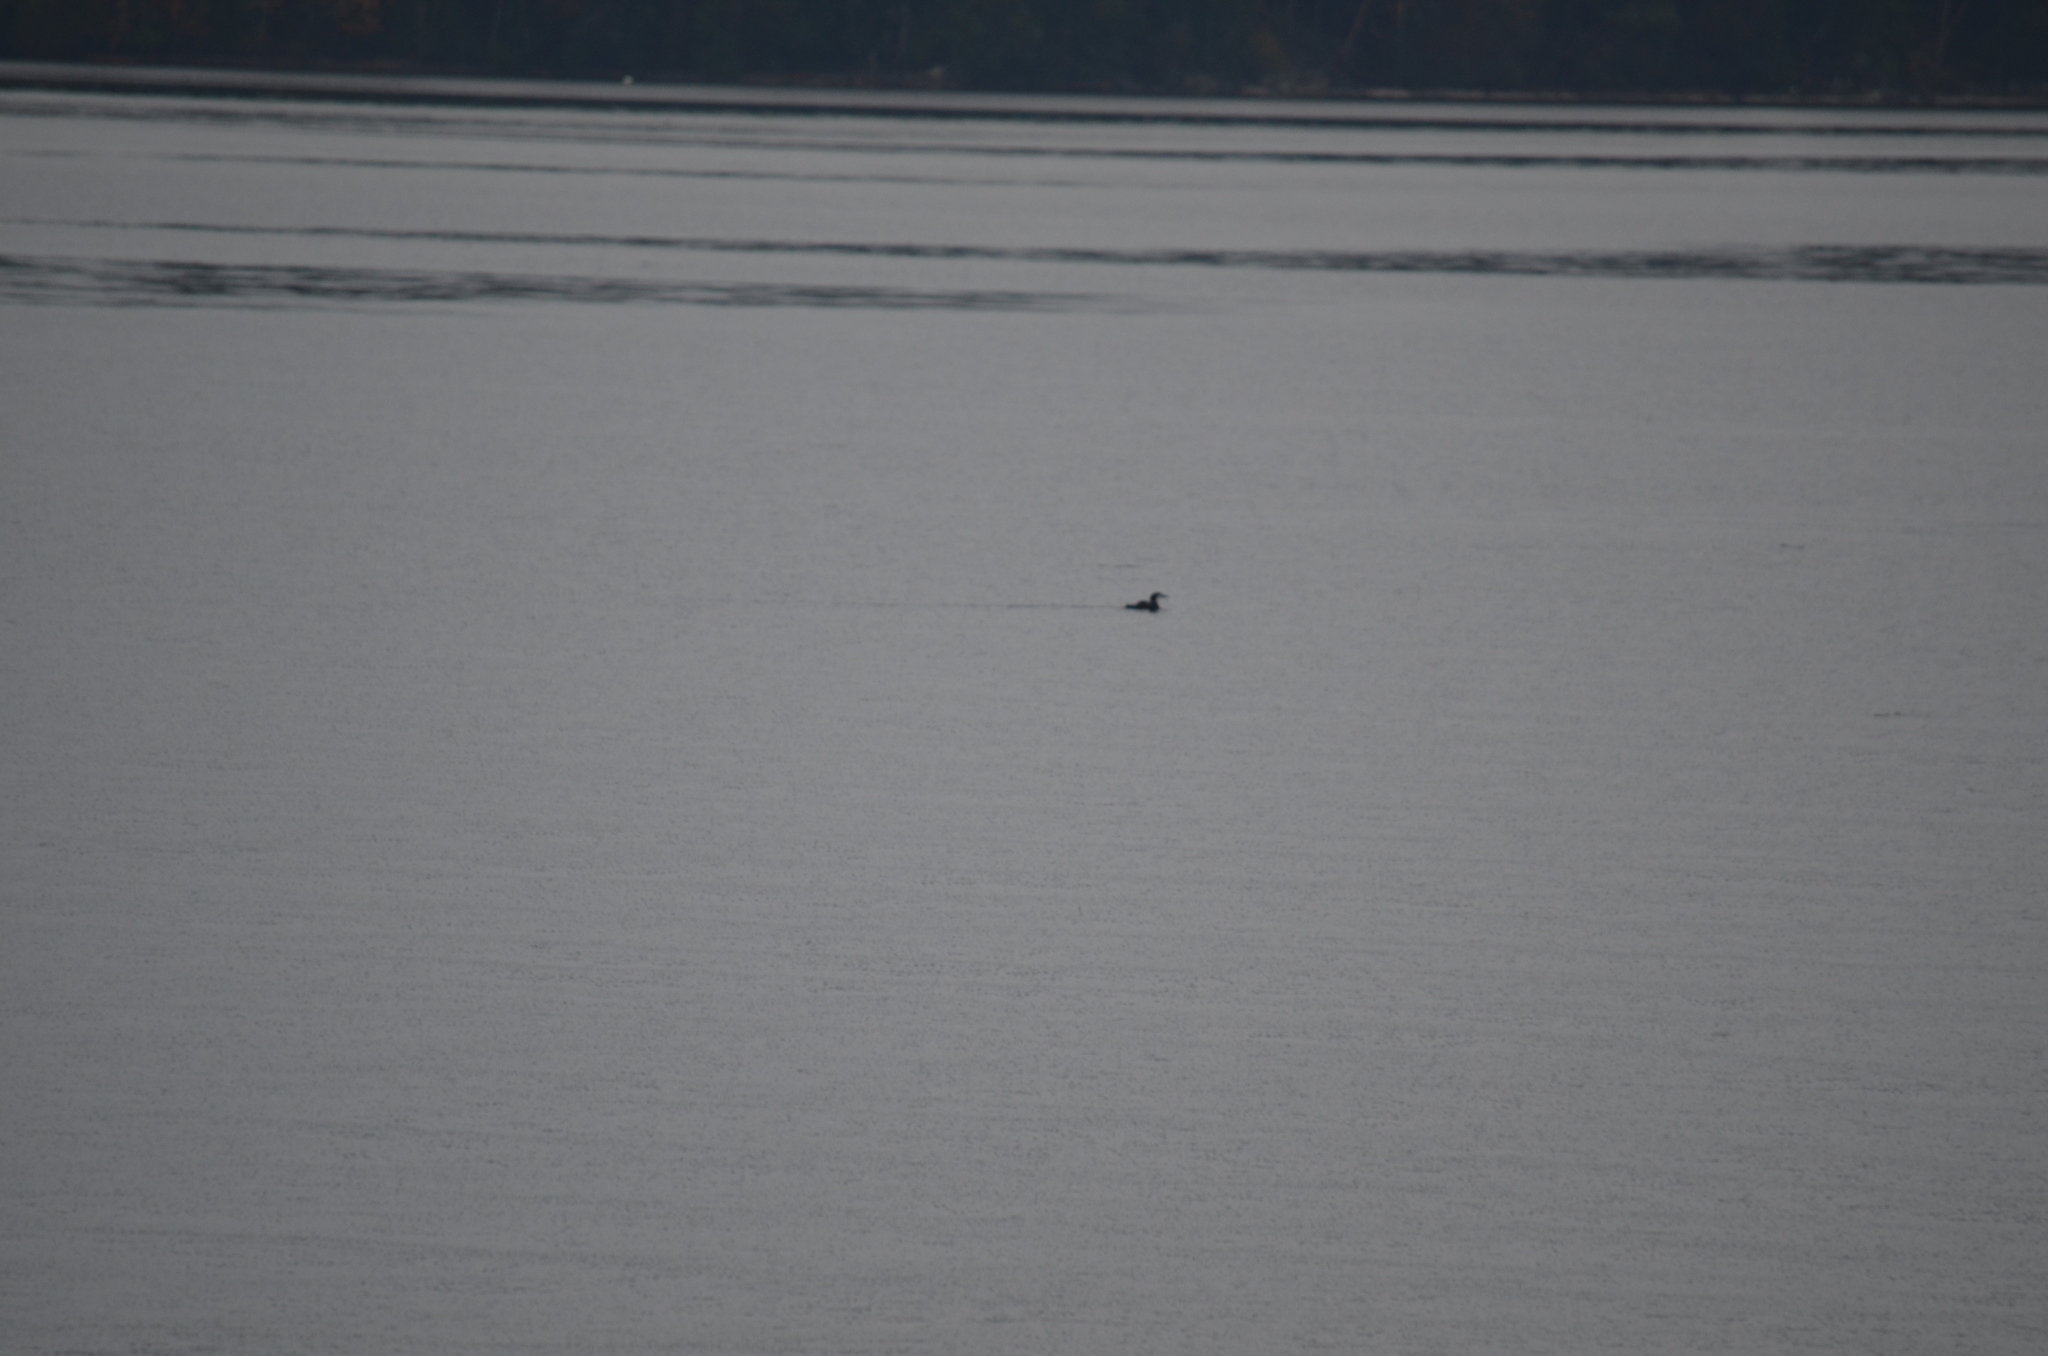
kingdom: Animalia
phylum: Chordata
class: Aves
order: Gaviiformes
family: Gaviidae
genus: Gavia
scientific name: Gavia immer
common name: Common loon
